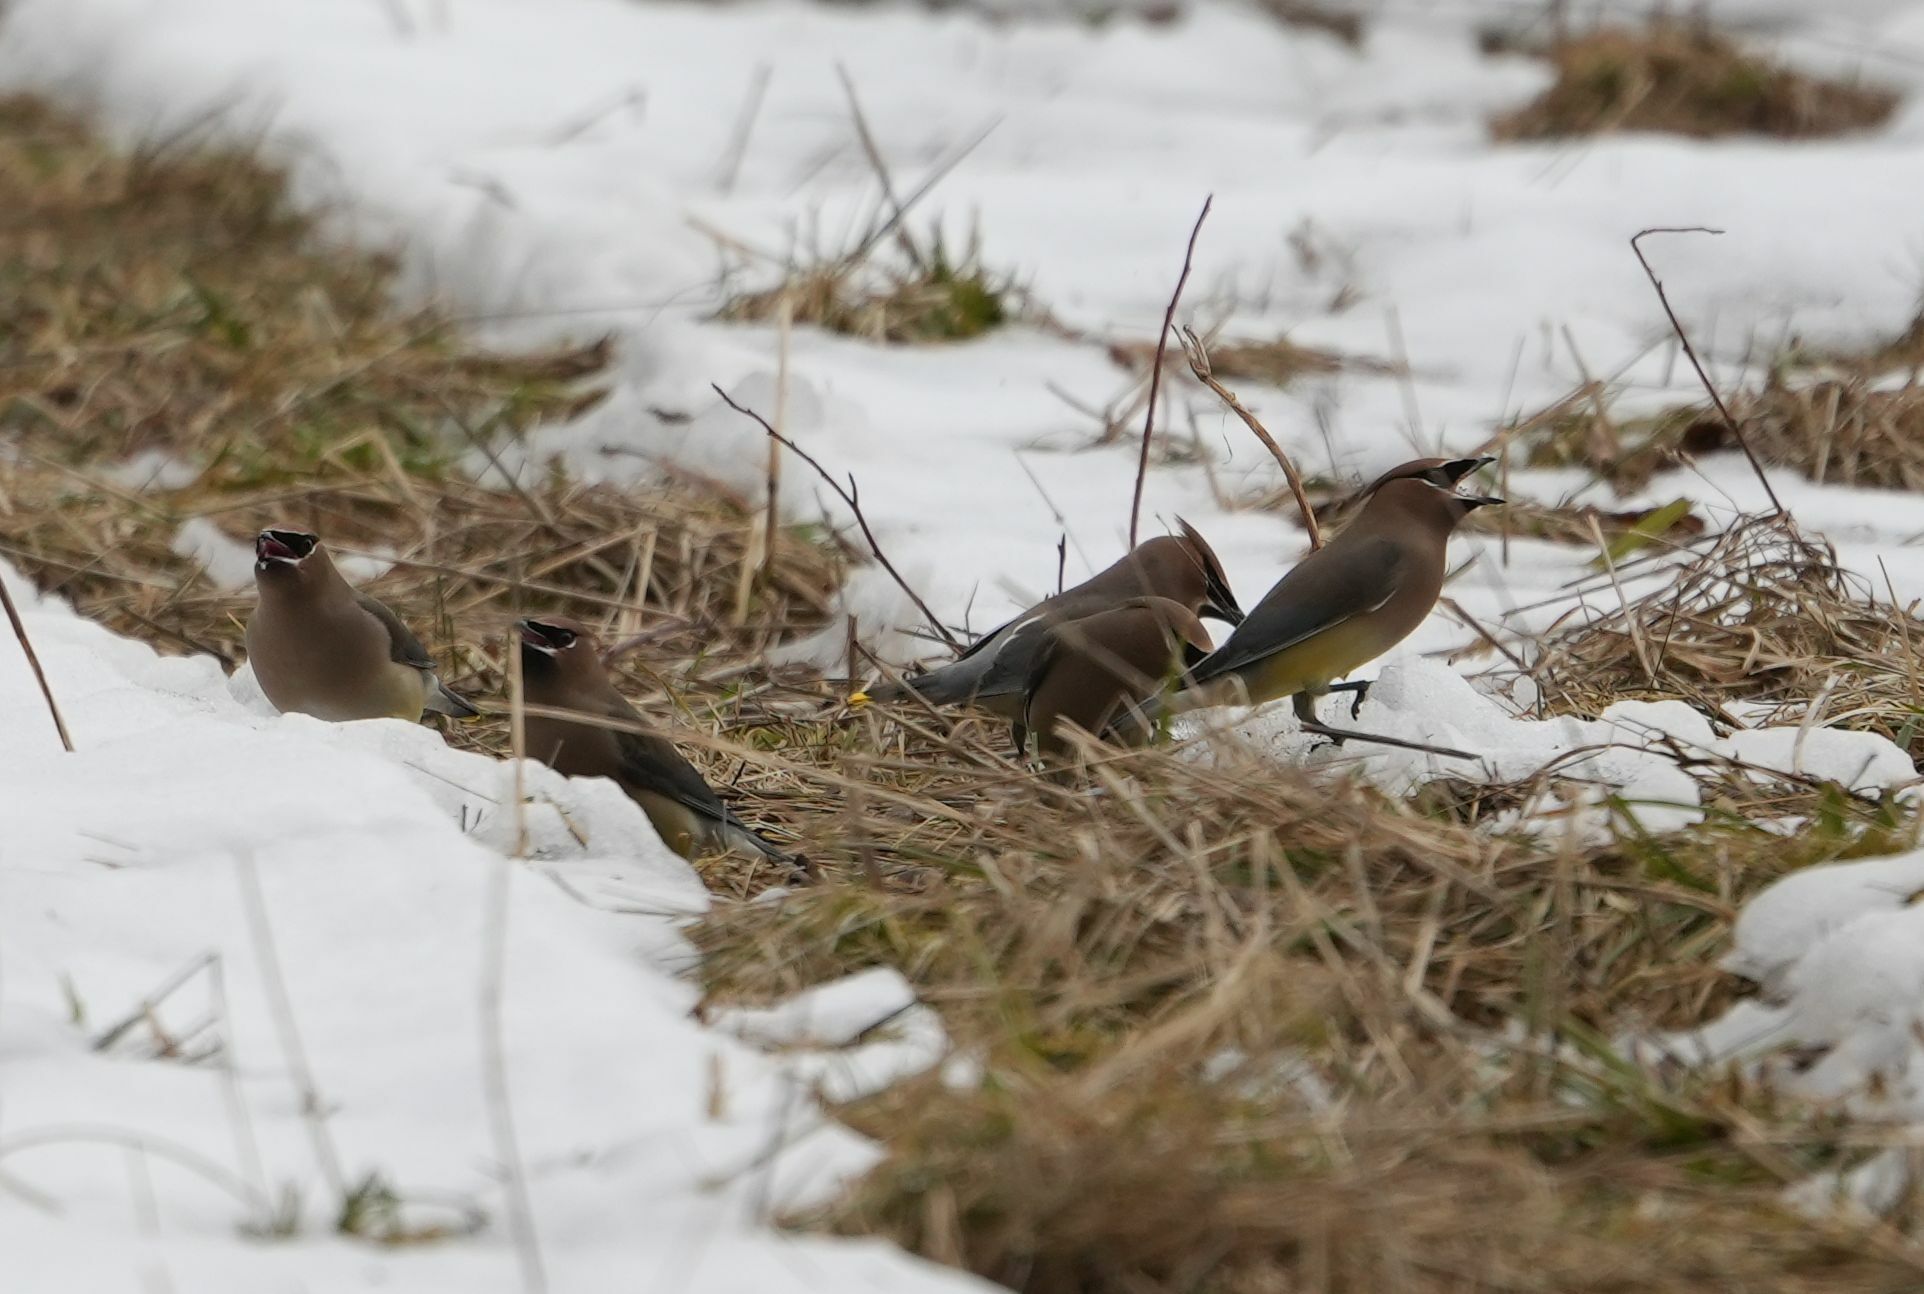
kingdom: Animalia
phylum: Chordata
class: Aves
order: Passeriformes
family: Bombycillidae
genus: Bombycilla
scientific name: Bombycilla cedrorum
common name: Cedar waxwing
